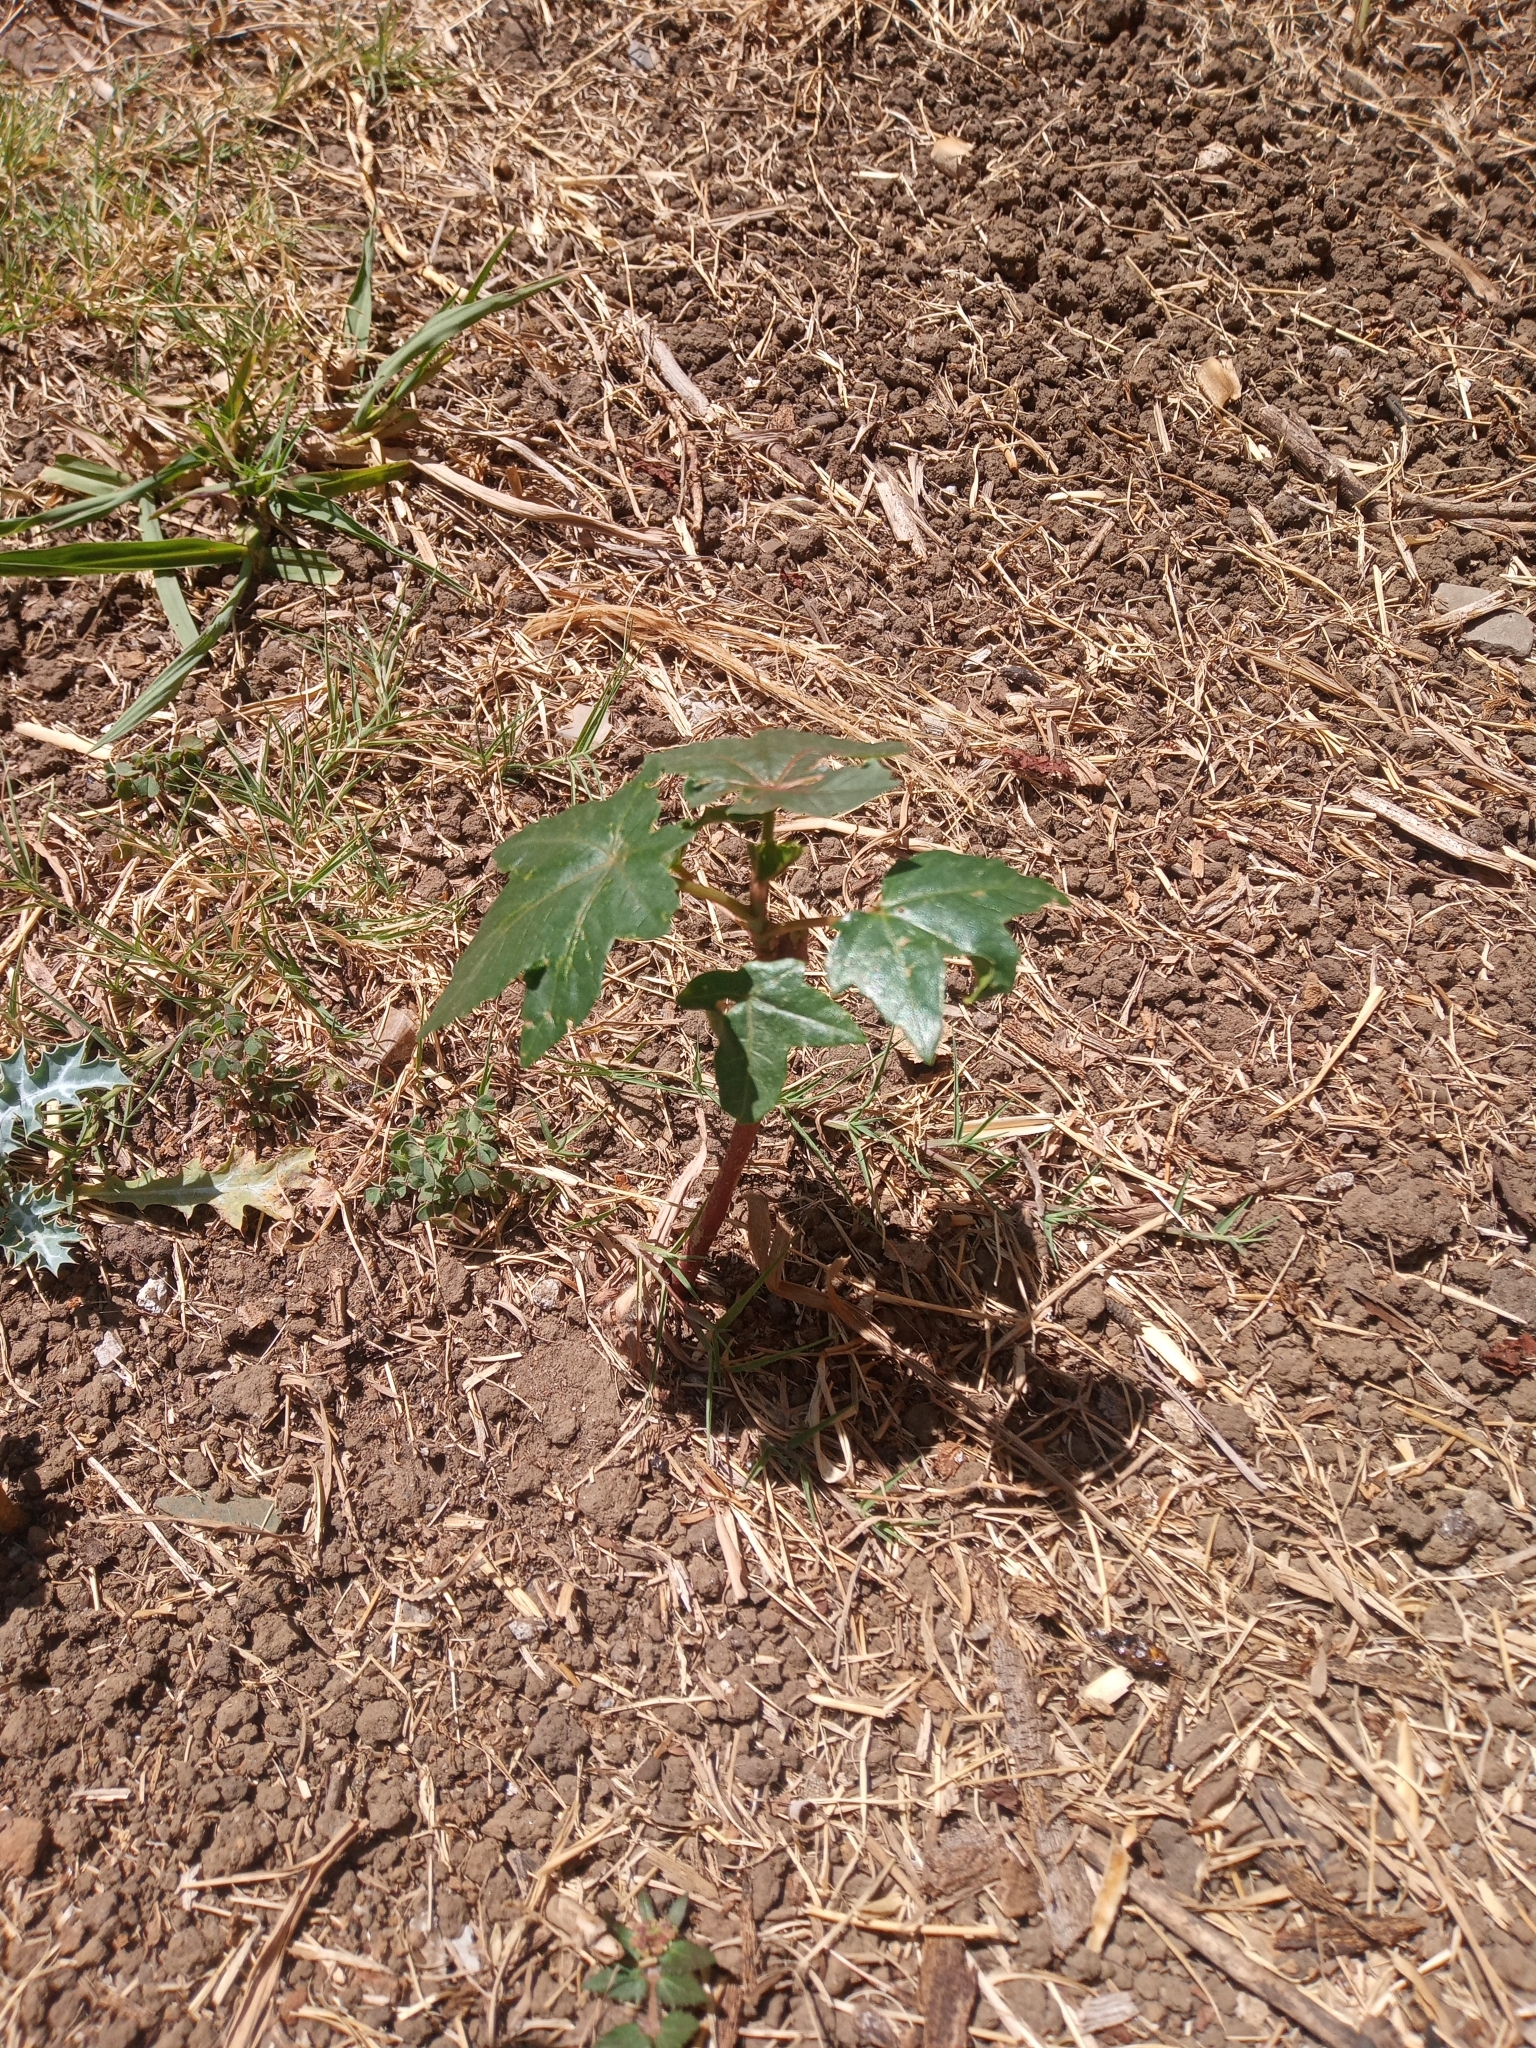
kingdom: Plantae
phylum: Tracheophyta
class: Magnoliopsida
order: Malpighiales
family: Euphorbiaceae
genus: Ricinus
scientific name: Ricinus communis
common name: Castor-oil-plant
